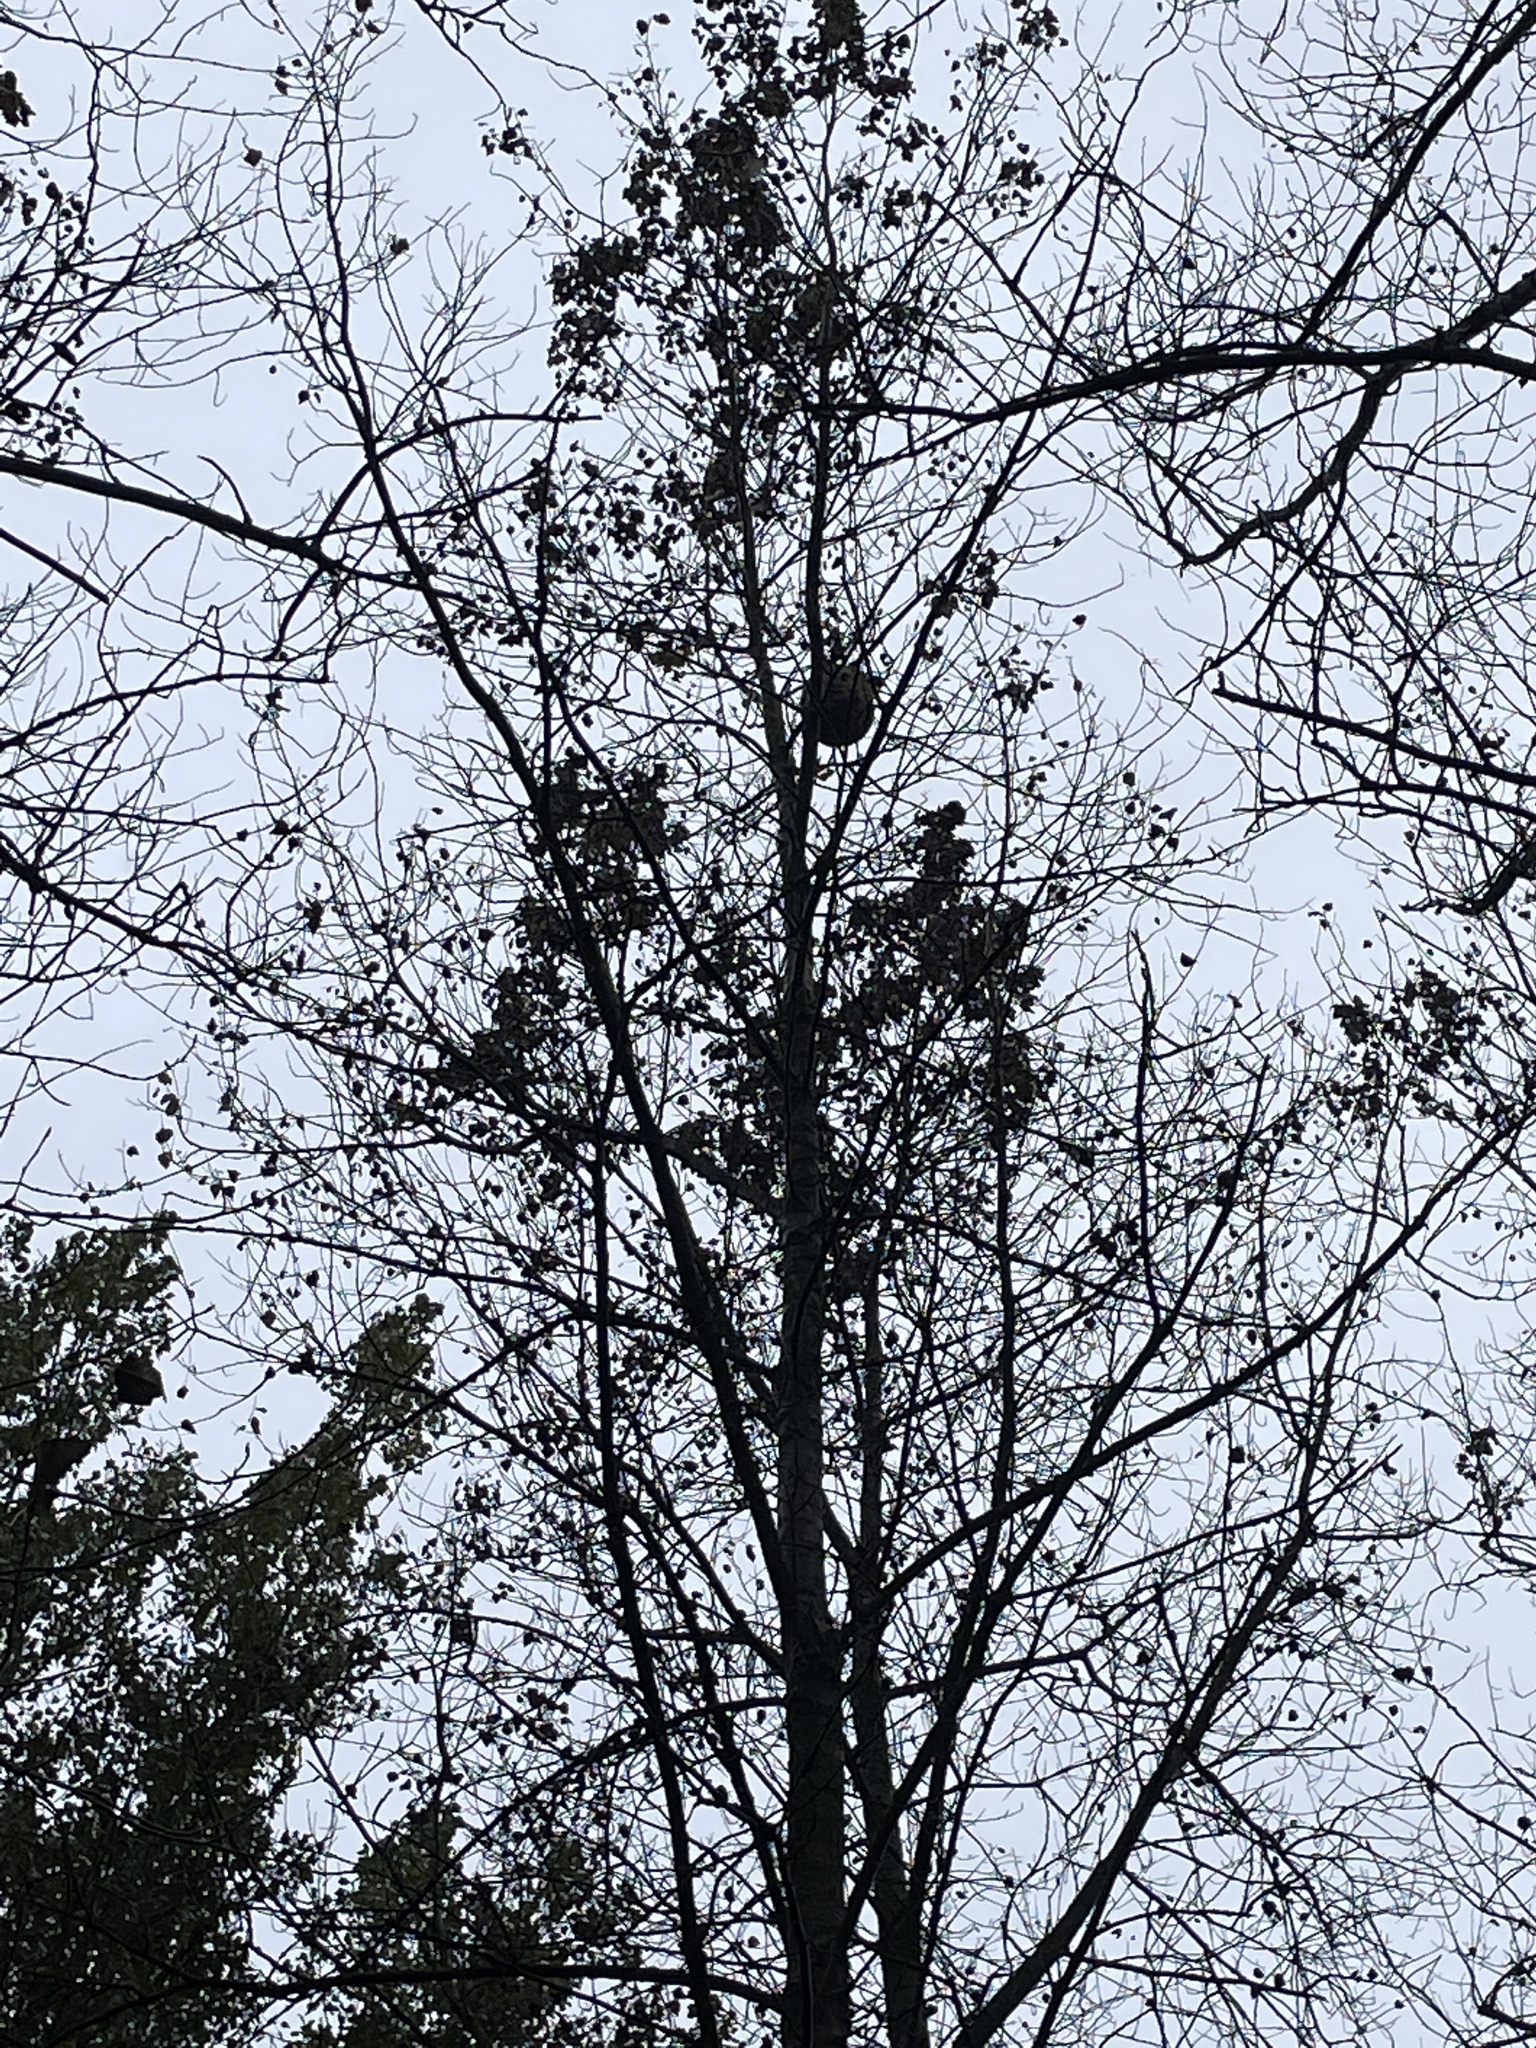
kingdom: Animalia
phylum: Arthropoda
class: Insecta
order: Hymenoptera
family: Vespidae
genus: Vespa
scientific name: Vespa velutina
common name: Asian hornet
